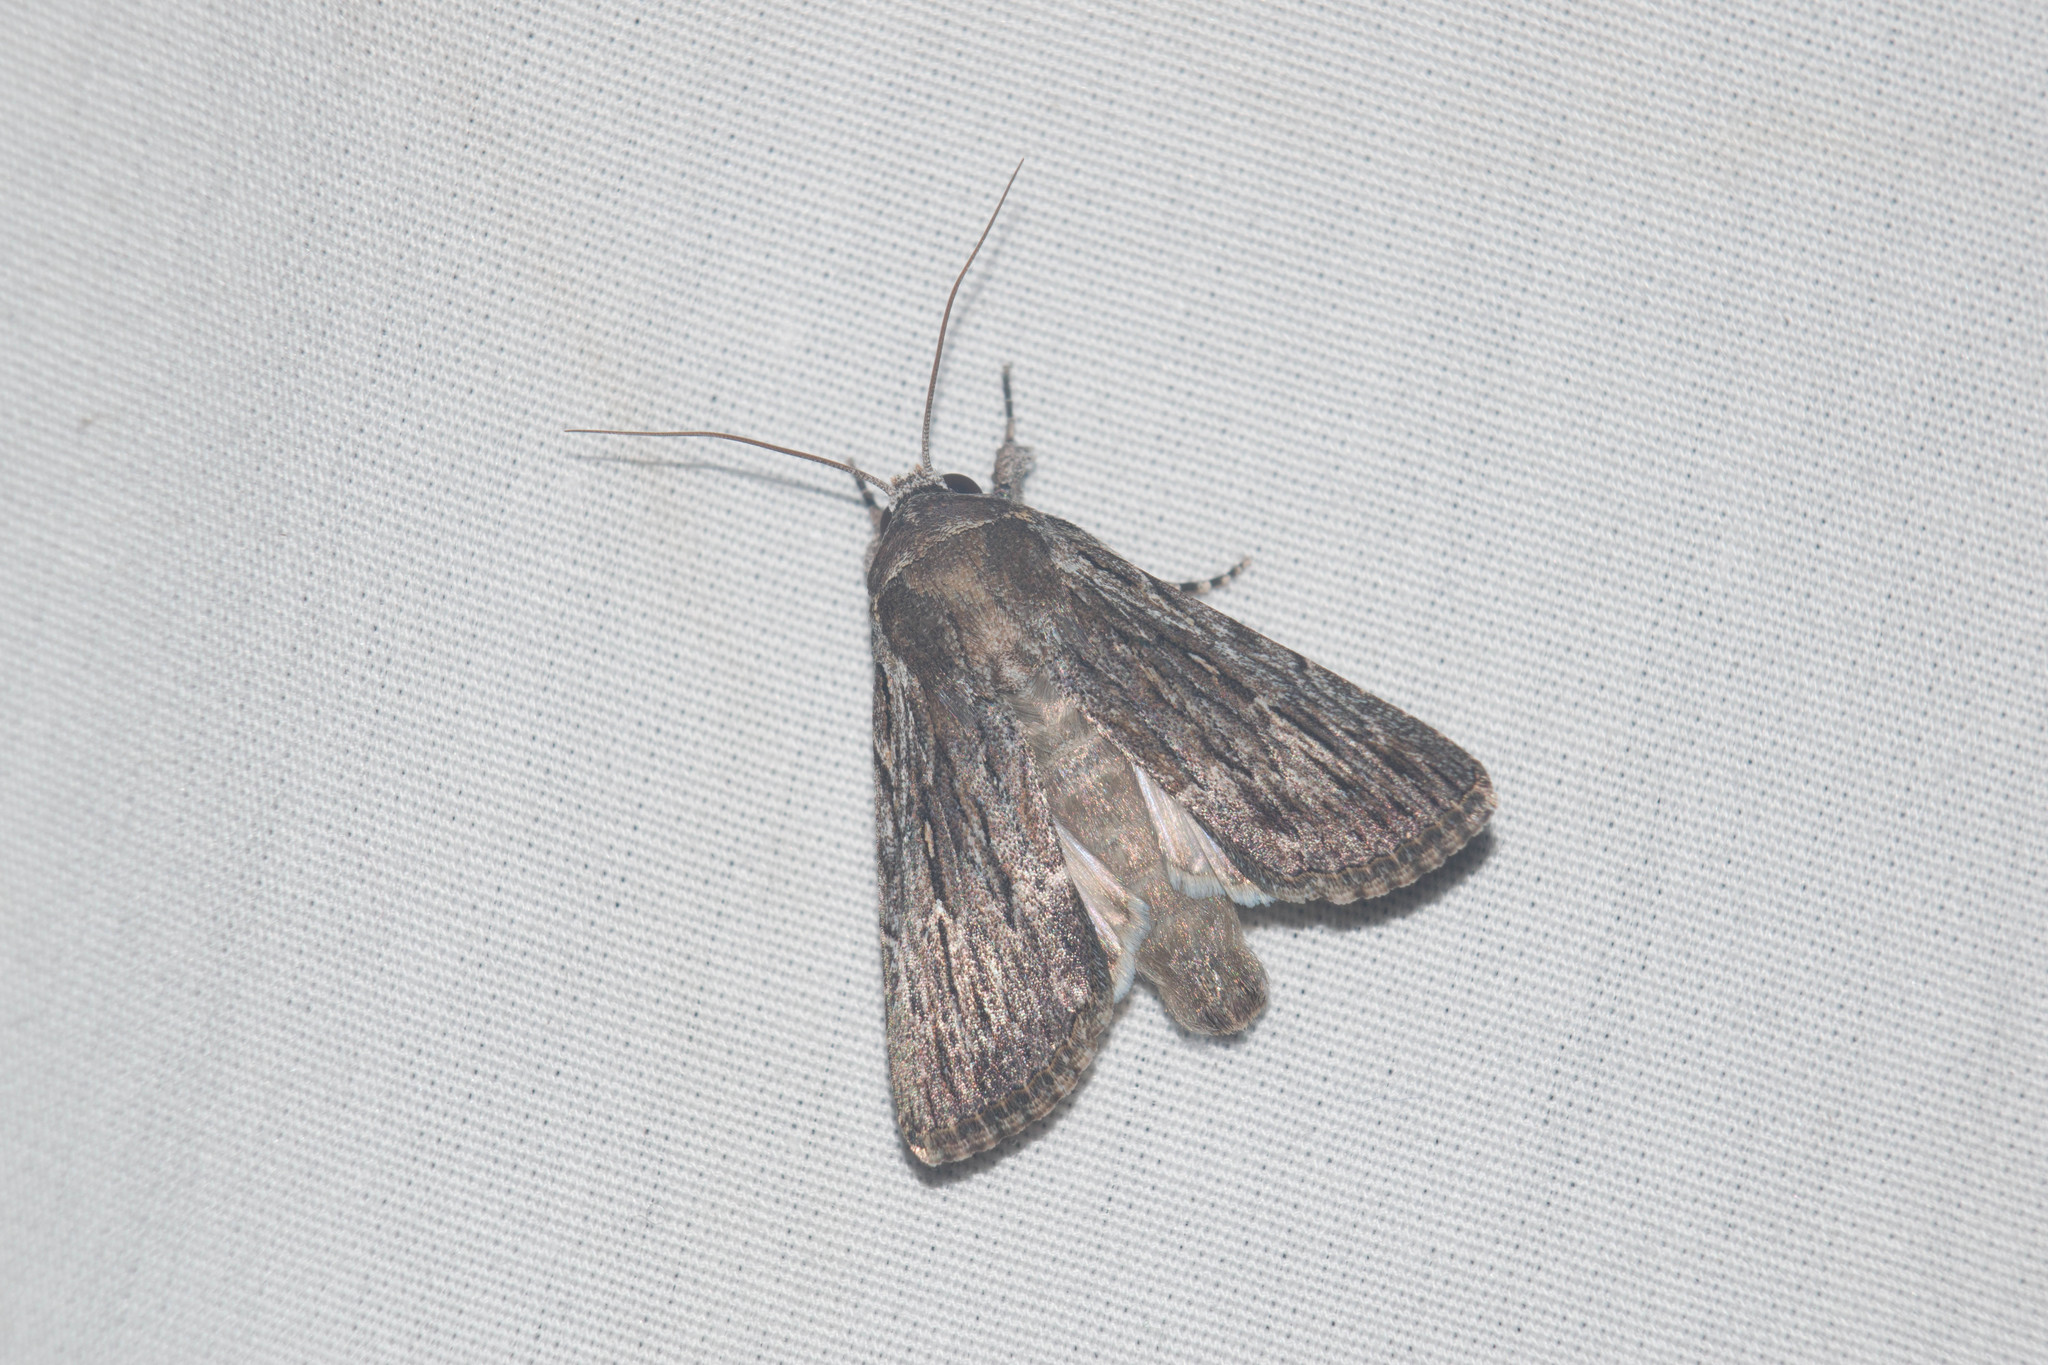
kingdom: Animalia
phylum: Arthropoda
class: Insecta
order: Lepidoptera
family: Noctuidae
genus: Neogalea
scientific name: Neogalea sunia
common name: Lantana stick caterpillar
